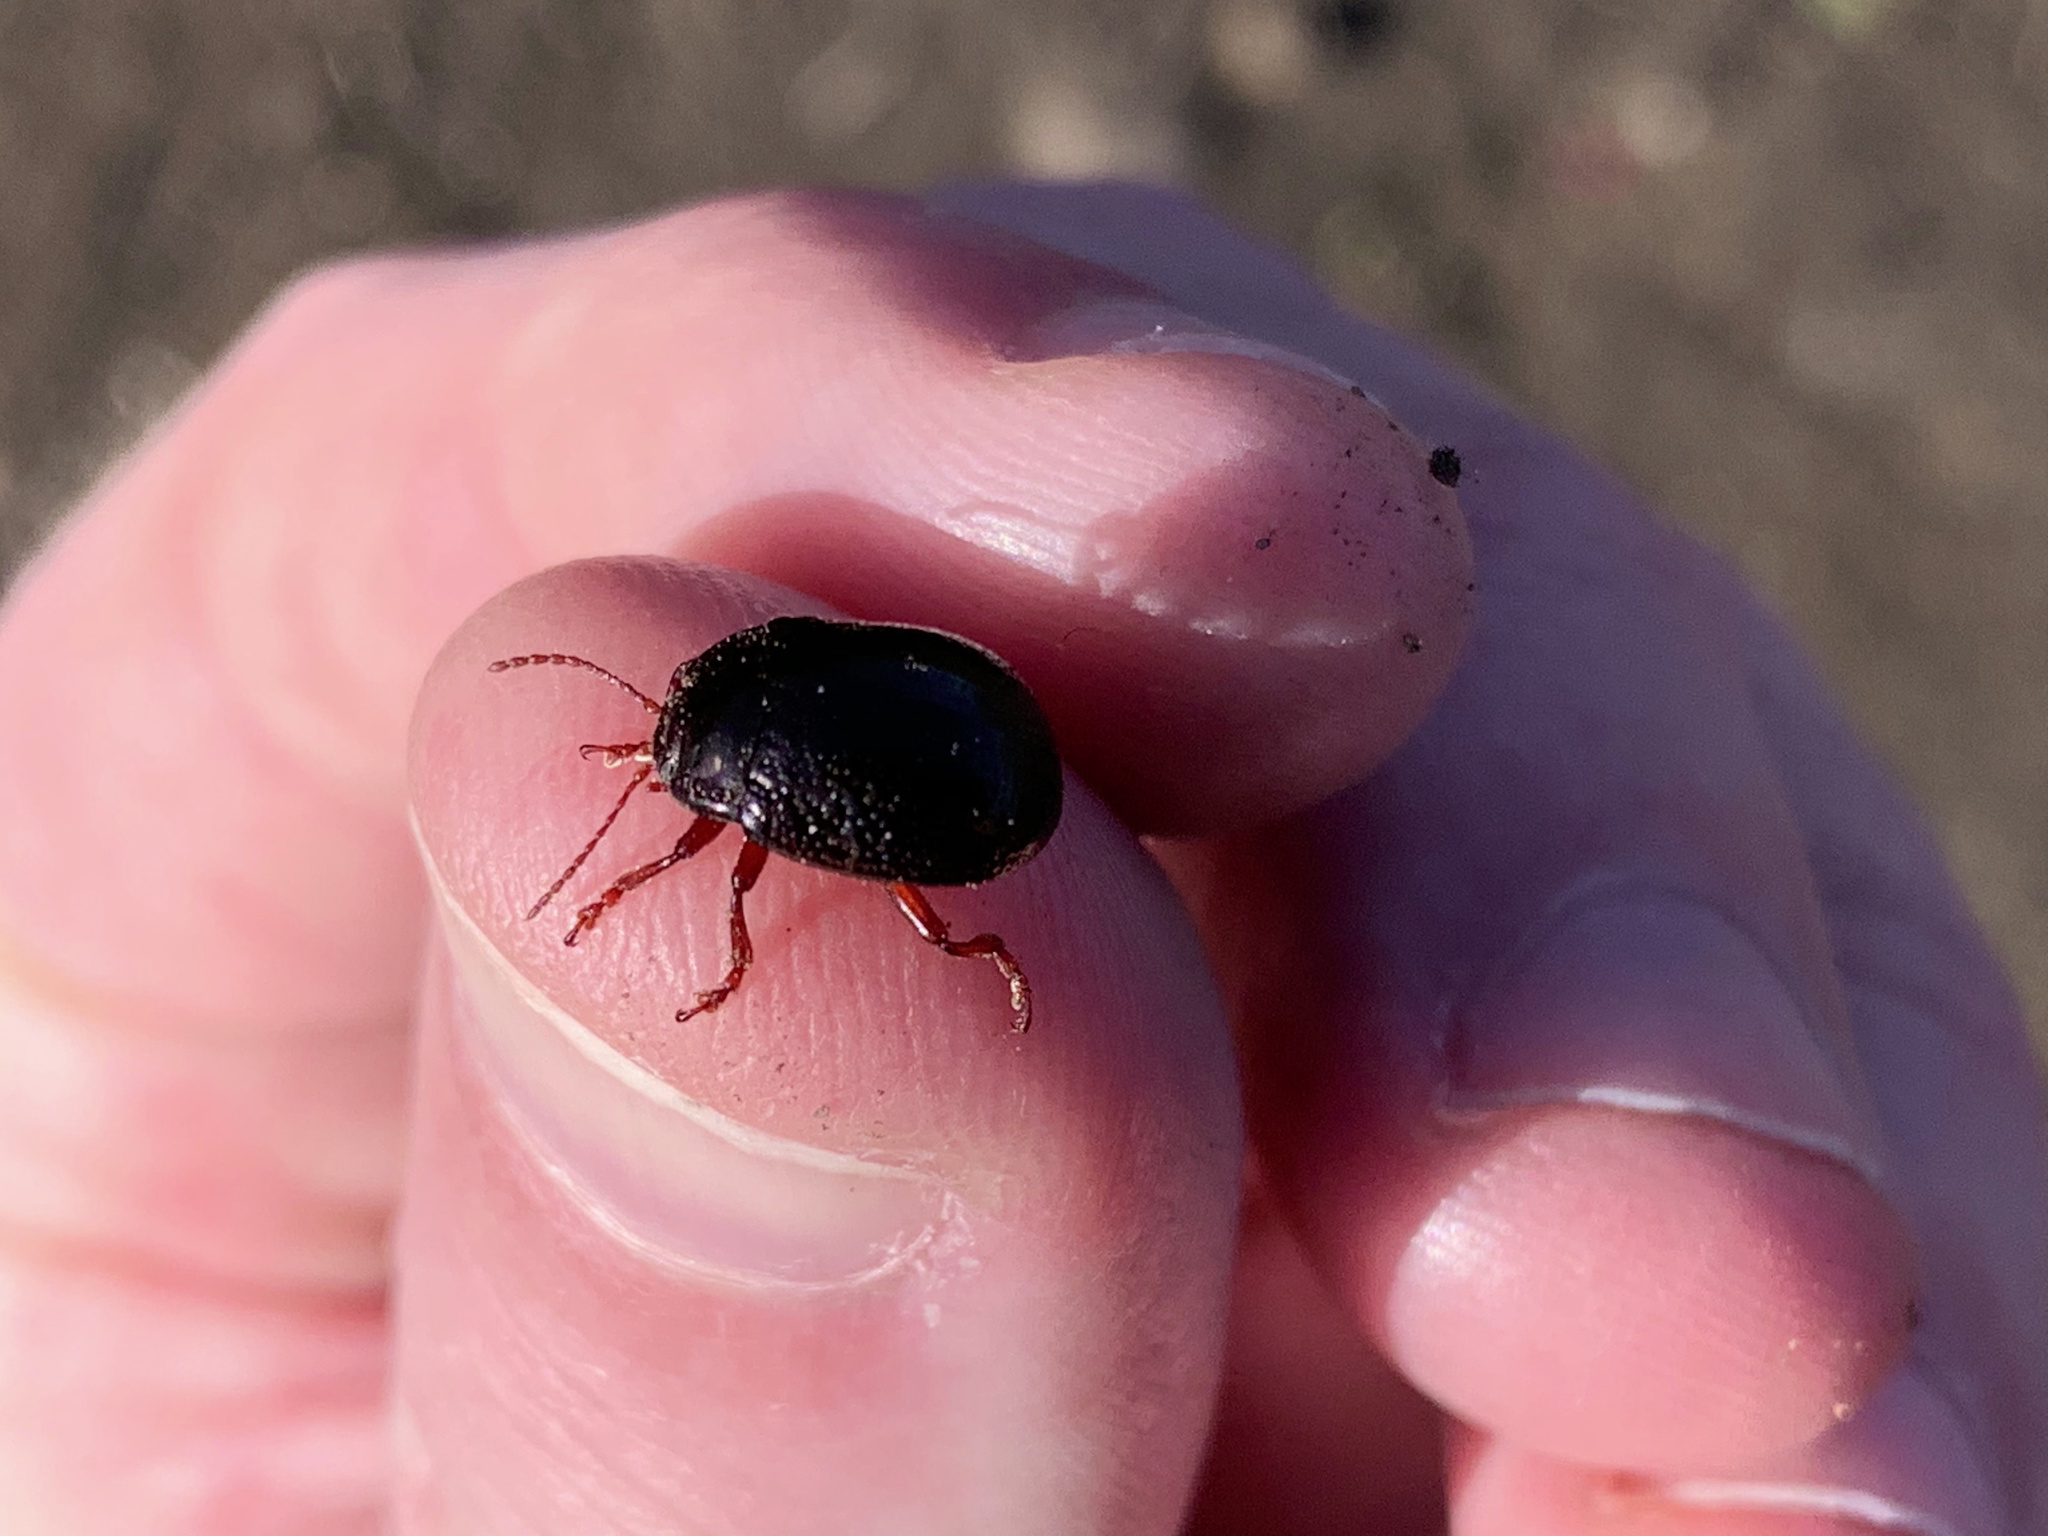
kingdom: Animalia
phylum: Arthropoda
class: Insecta
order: Coleoptera
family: Chrysomelidae
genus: Chrysolina
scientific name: Chrysolina bankii
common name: Leaf beetle
